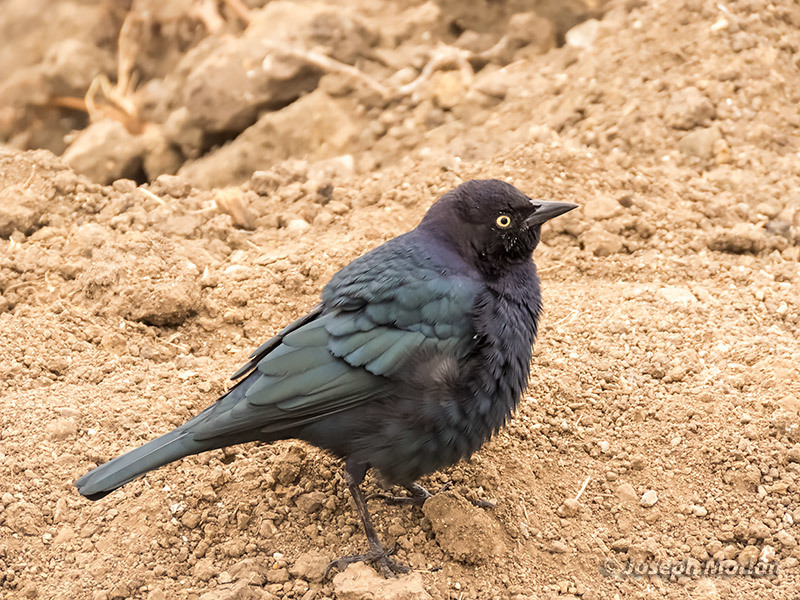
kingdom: Animalia
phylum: Chordata
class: Aves
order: Passeriformes
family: Icteridae
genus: Euphagus
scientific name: Euphagus cyanocephalus
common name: Brewer's blackbird
